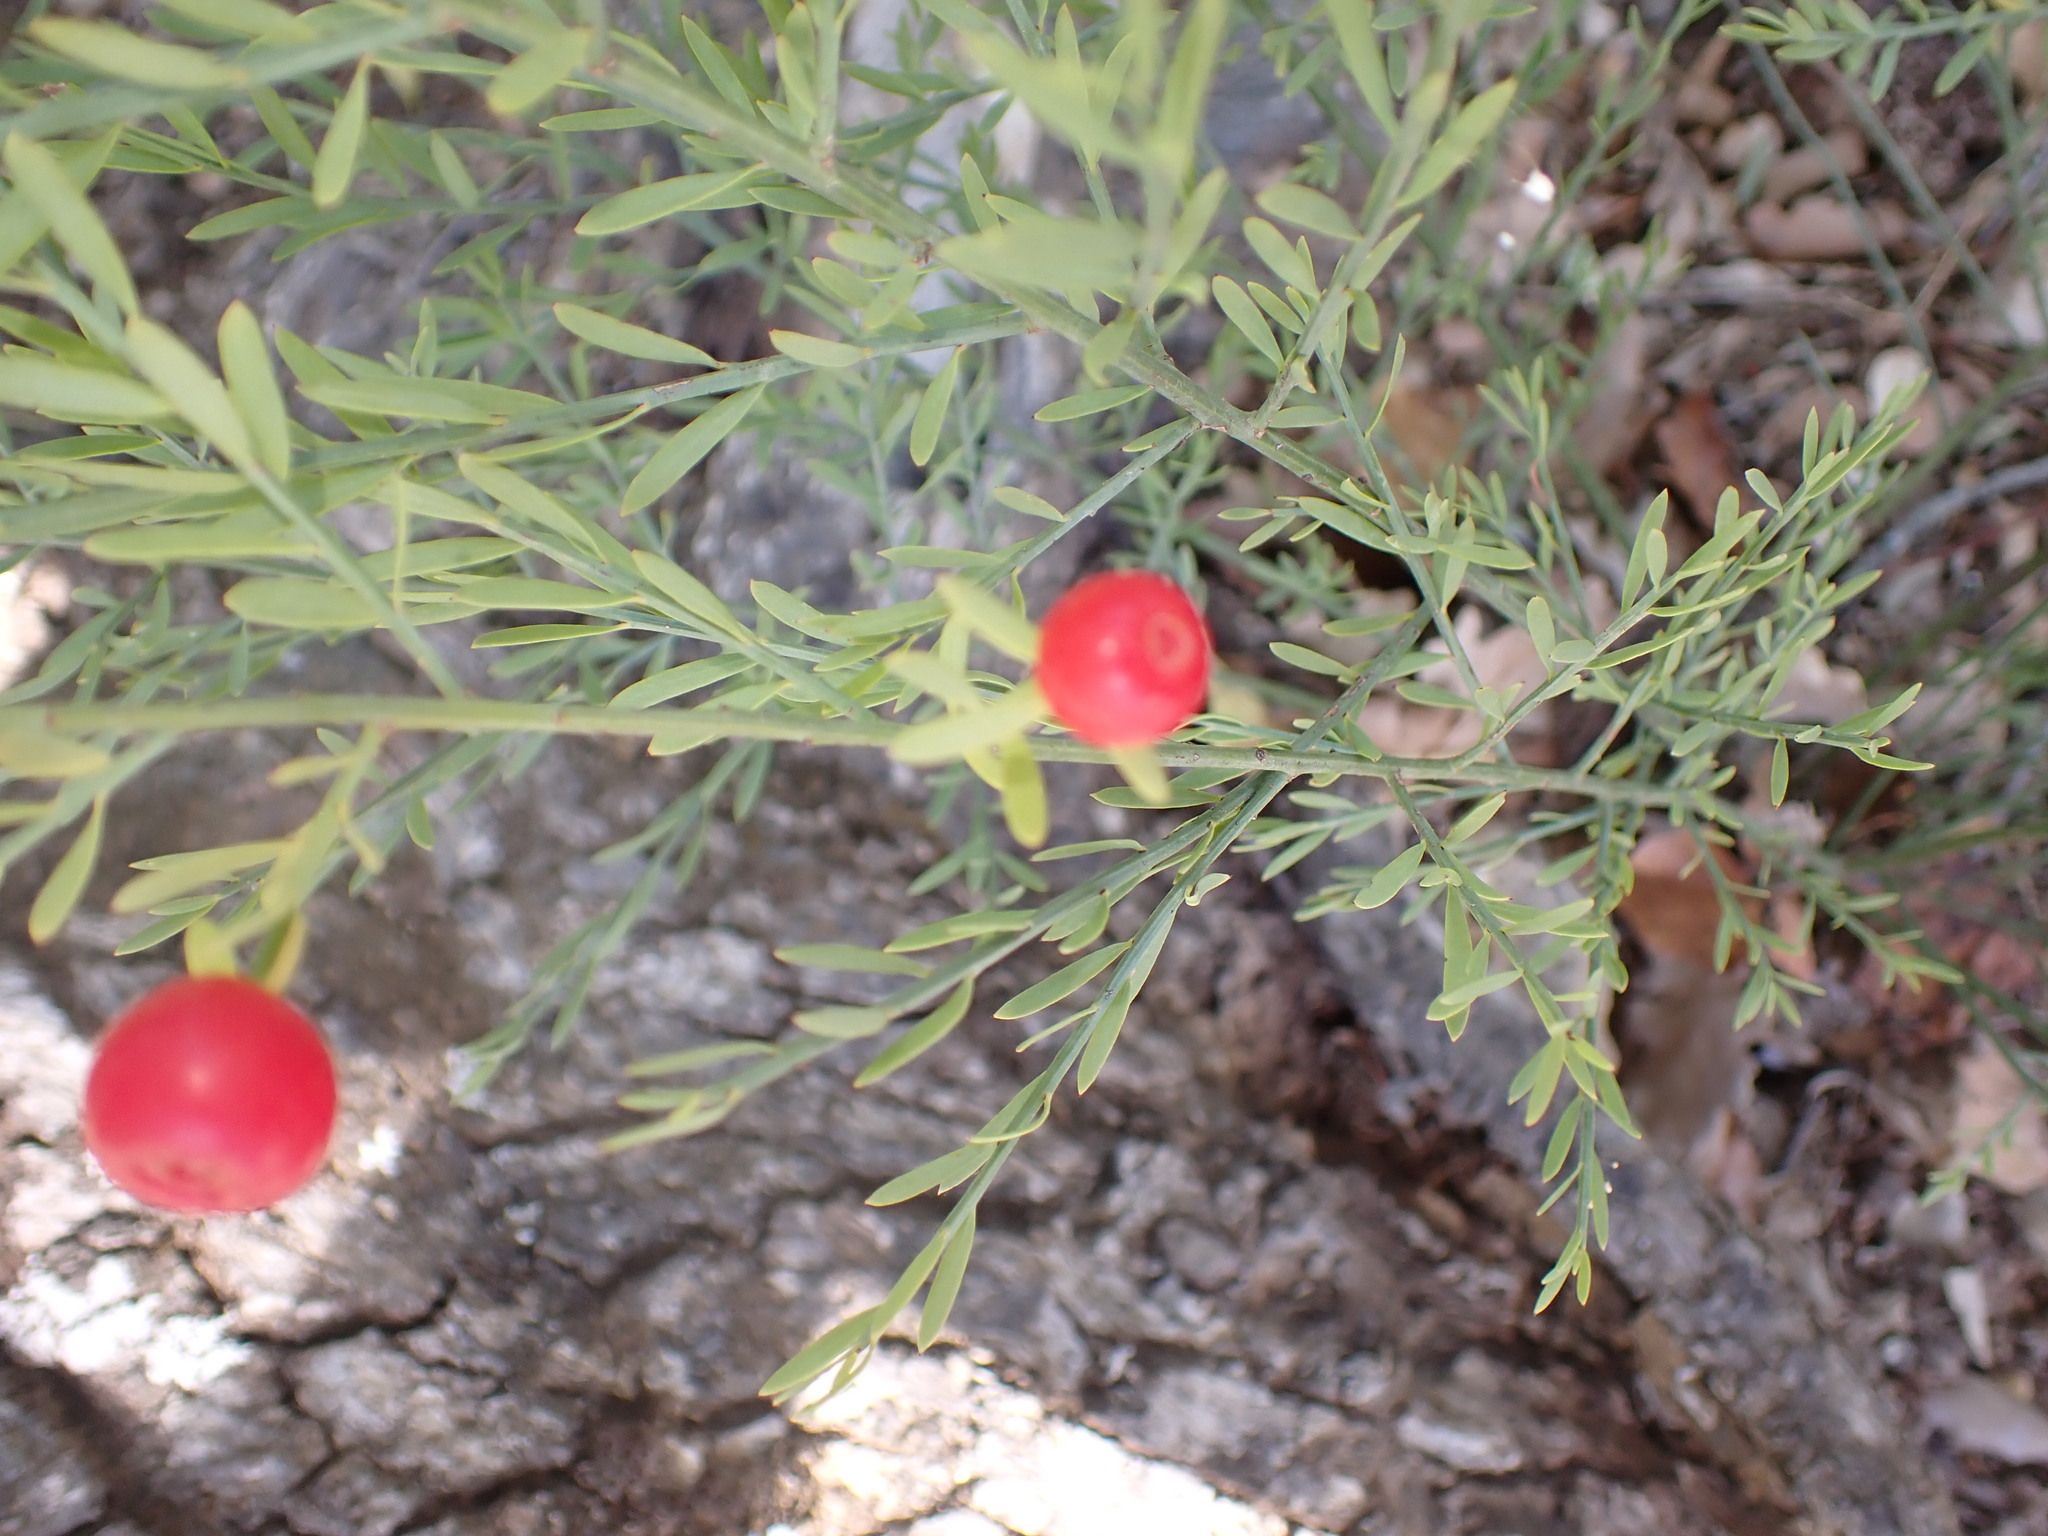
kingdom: Plantae
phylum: Tracheophyta
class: Magnoliopsida
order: Santalales
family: Santalaceae
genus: Osyris
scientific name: Osyris alba
